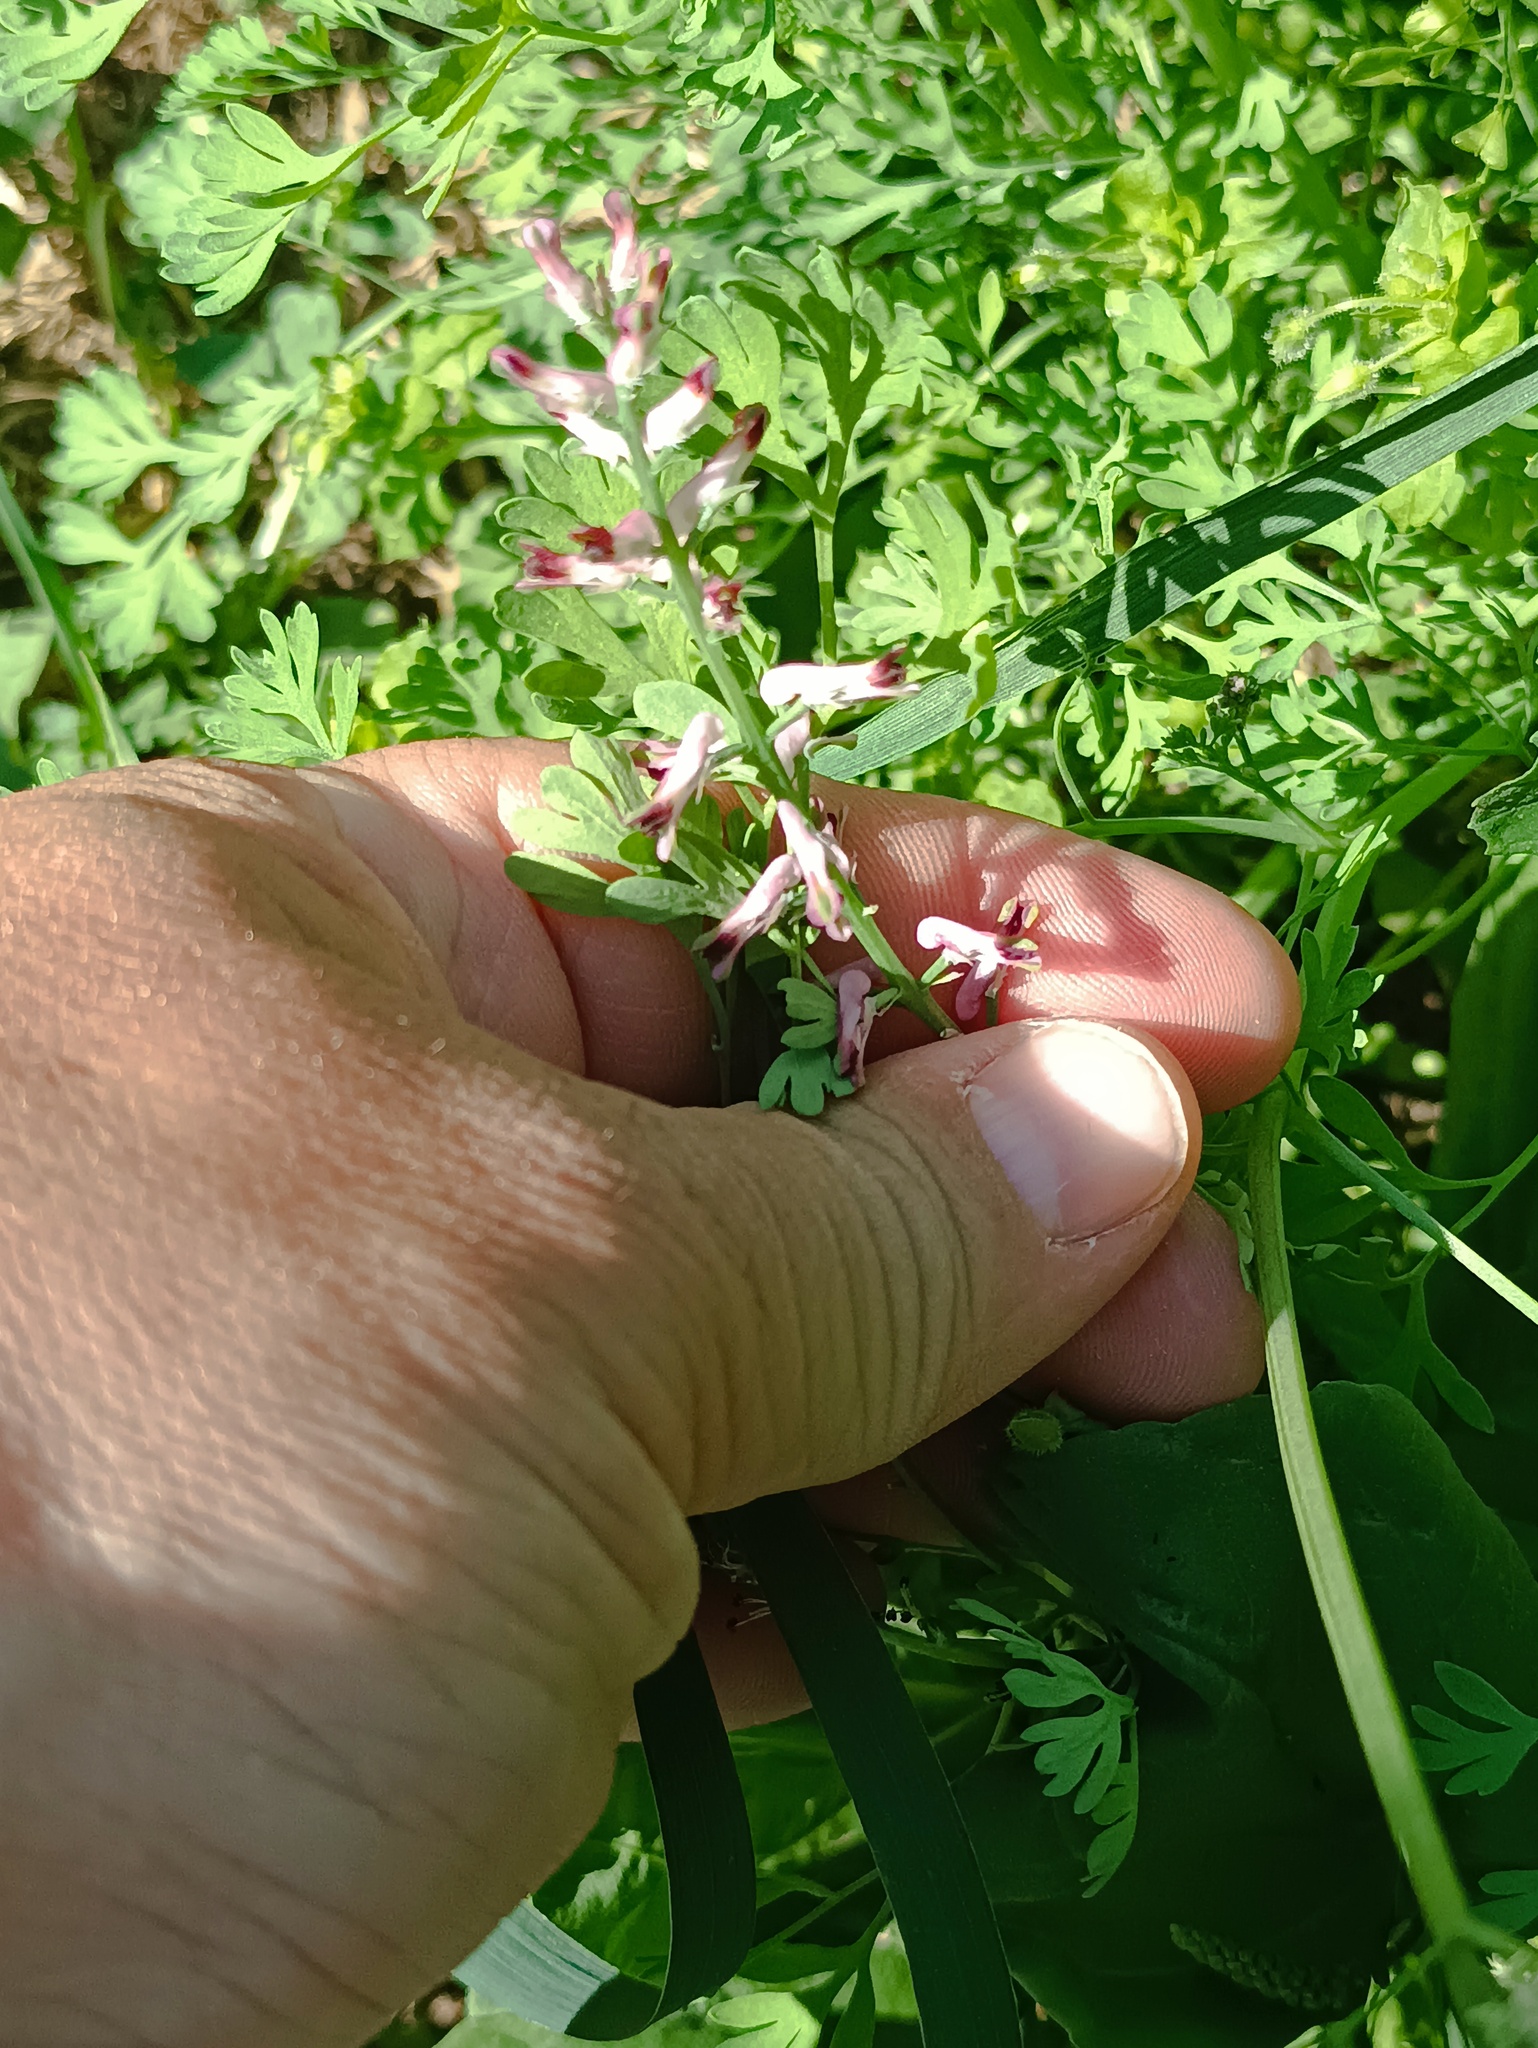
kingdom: Plantae
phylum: Tracheophyta
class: Magnoliopsida
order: Ranunculales
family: Papaveraceae
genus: Fumaria
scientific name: Fumaria officinalis
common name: Common fumitory
